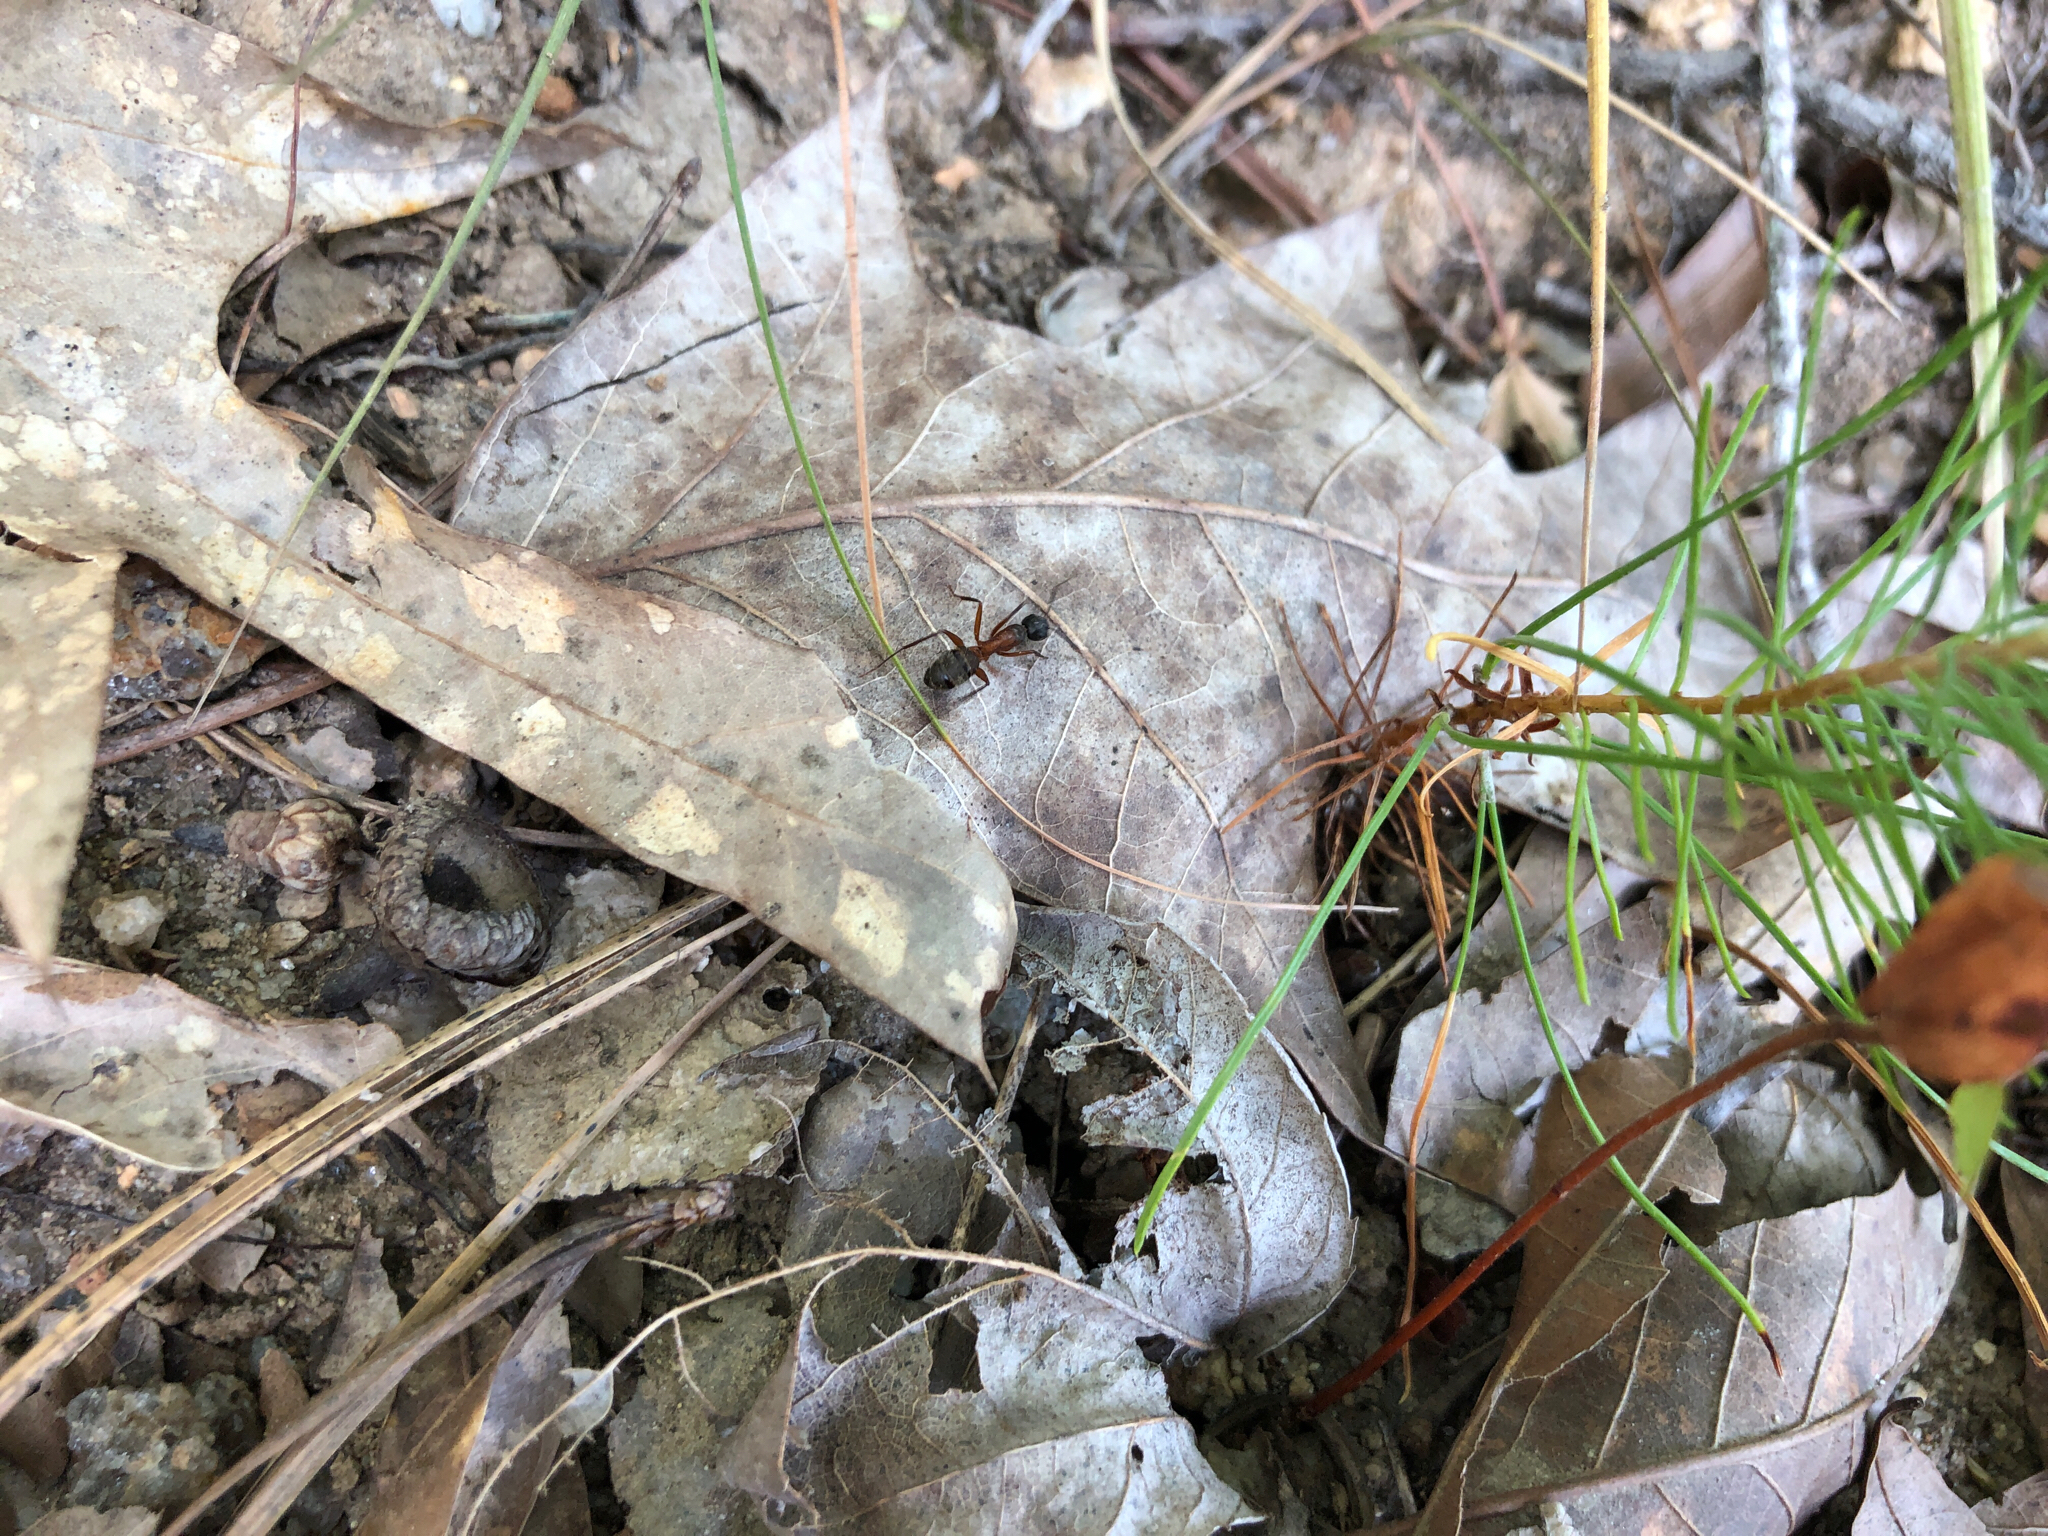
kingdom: Animalia
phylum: Arthropoda
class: Insecta
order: Hymenoptera
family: Formicidae
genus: Camponotus
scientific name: Camponotus chromaiodes
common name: Red carpenter ant
